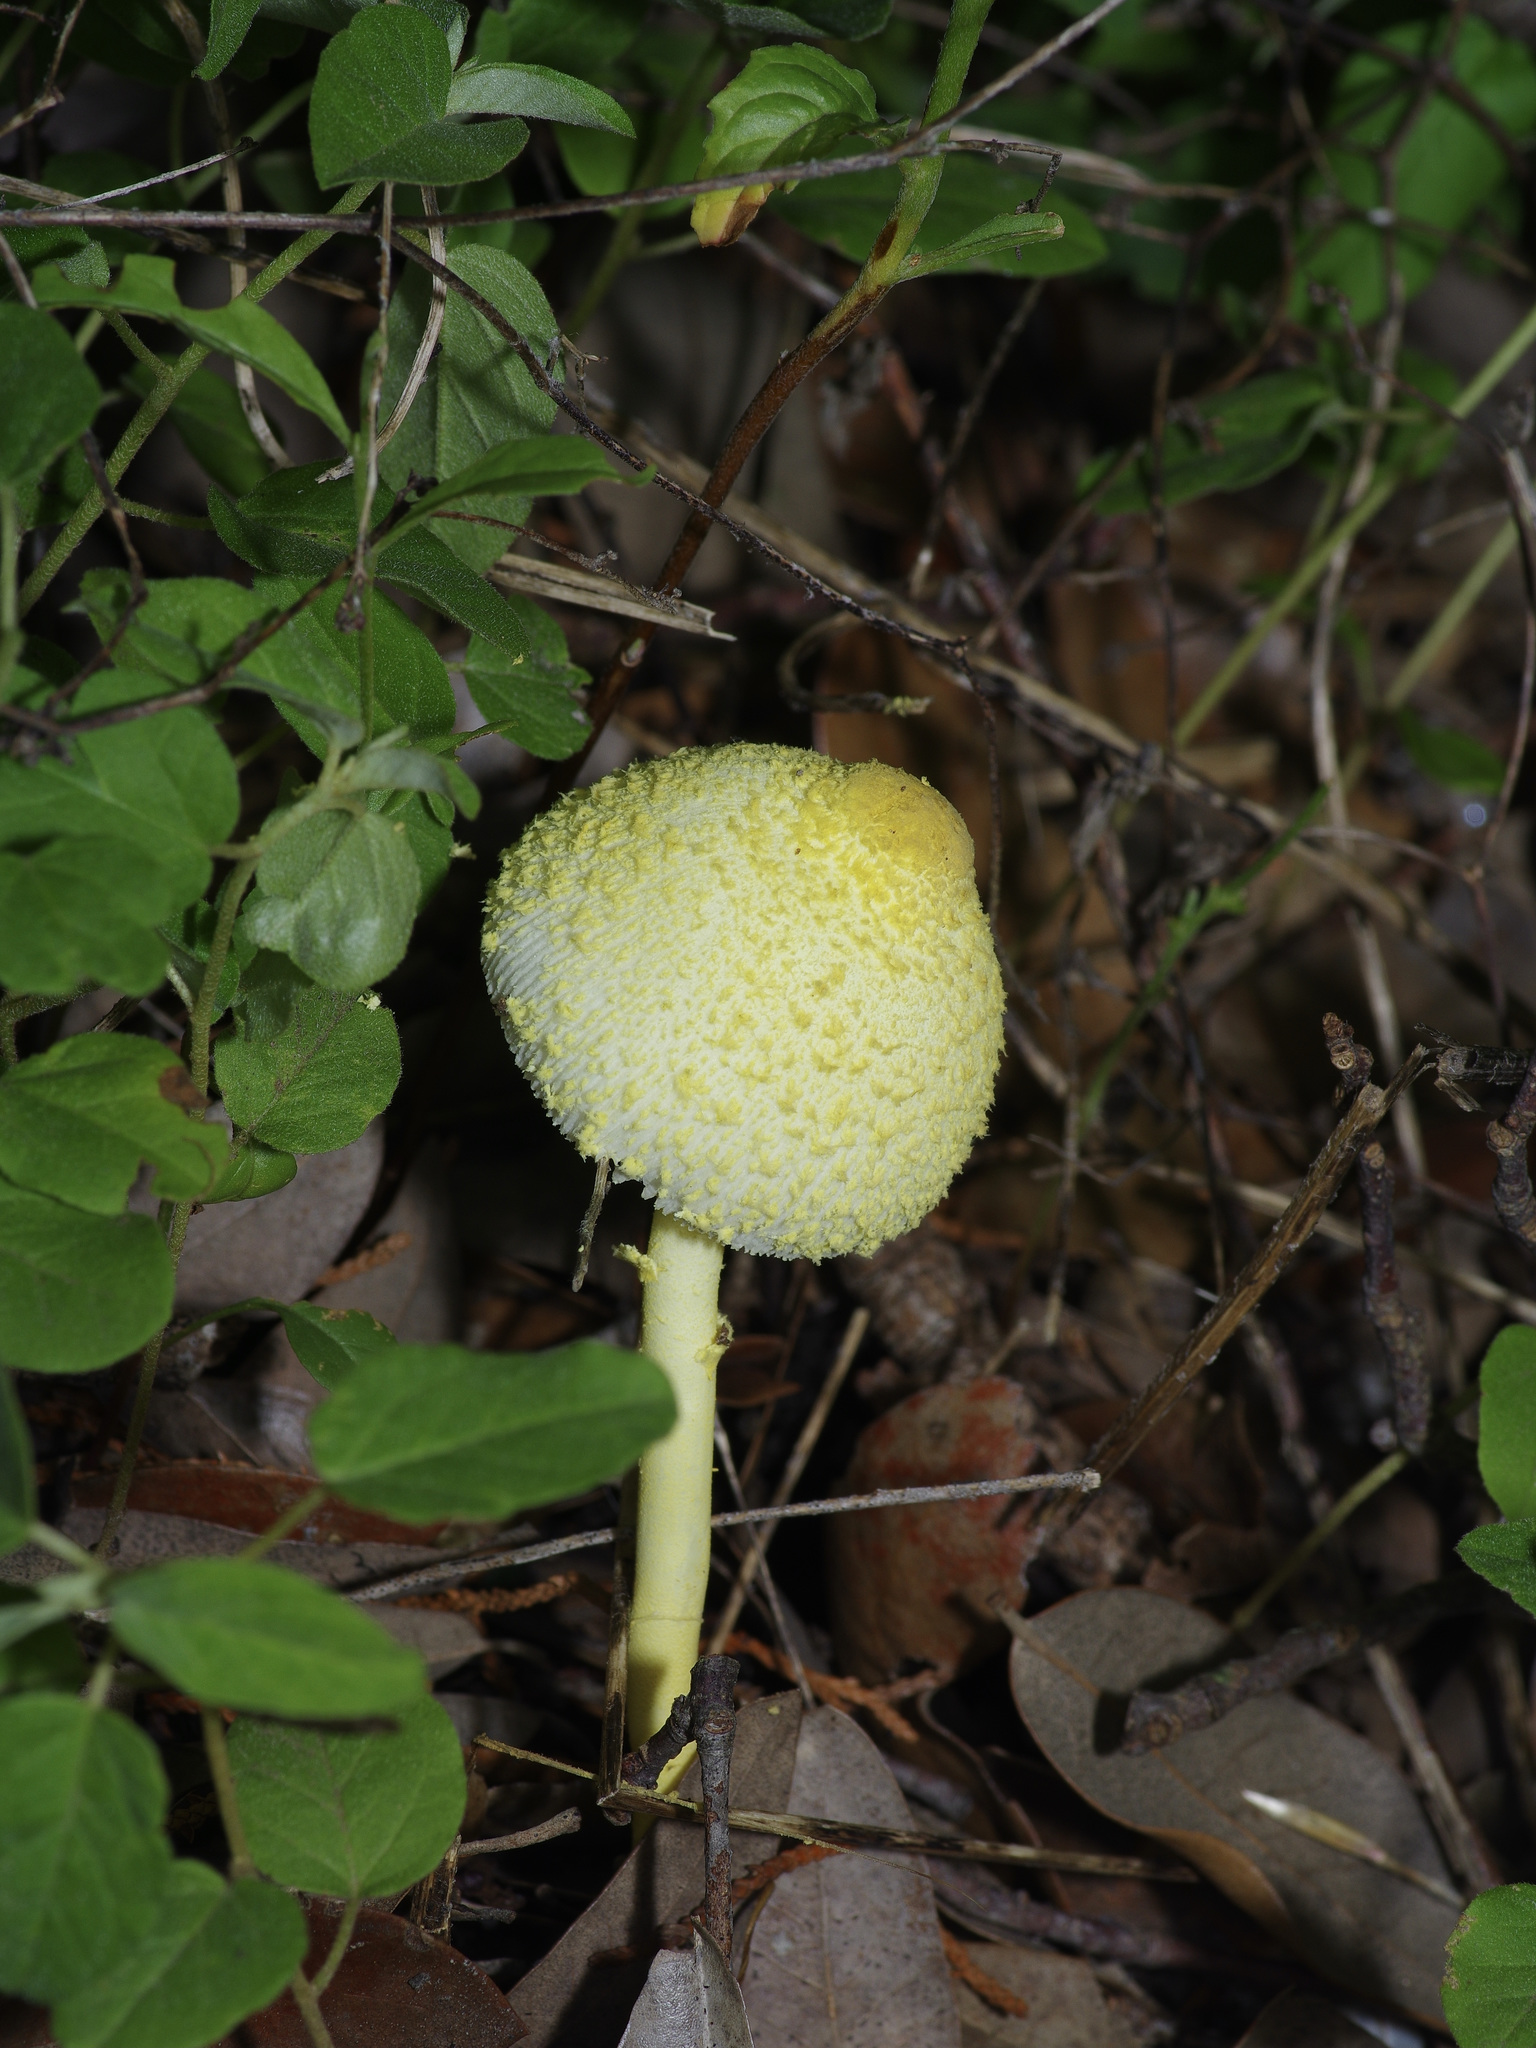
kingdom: Fungi
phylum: Basidiomycota
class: Agaricomycetes
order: Agaricales
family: Agaricaceae
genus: Leucocoprinus
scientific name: Leucocoprinus birnbaumii
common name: Plantpot dapperling
